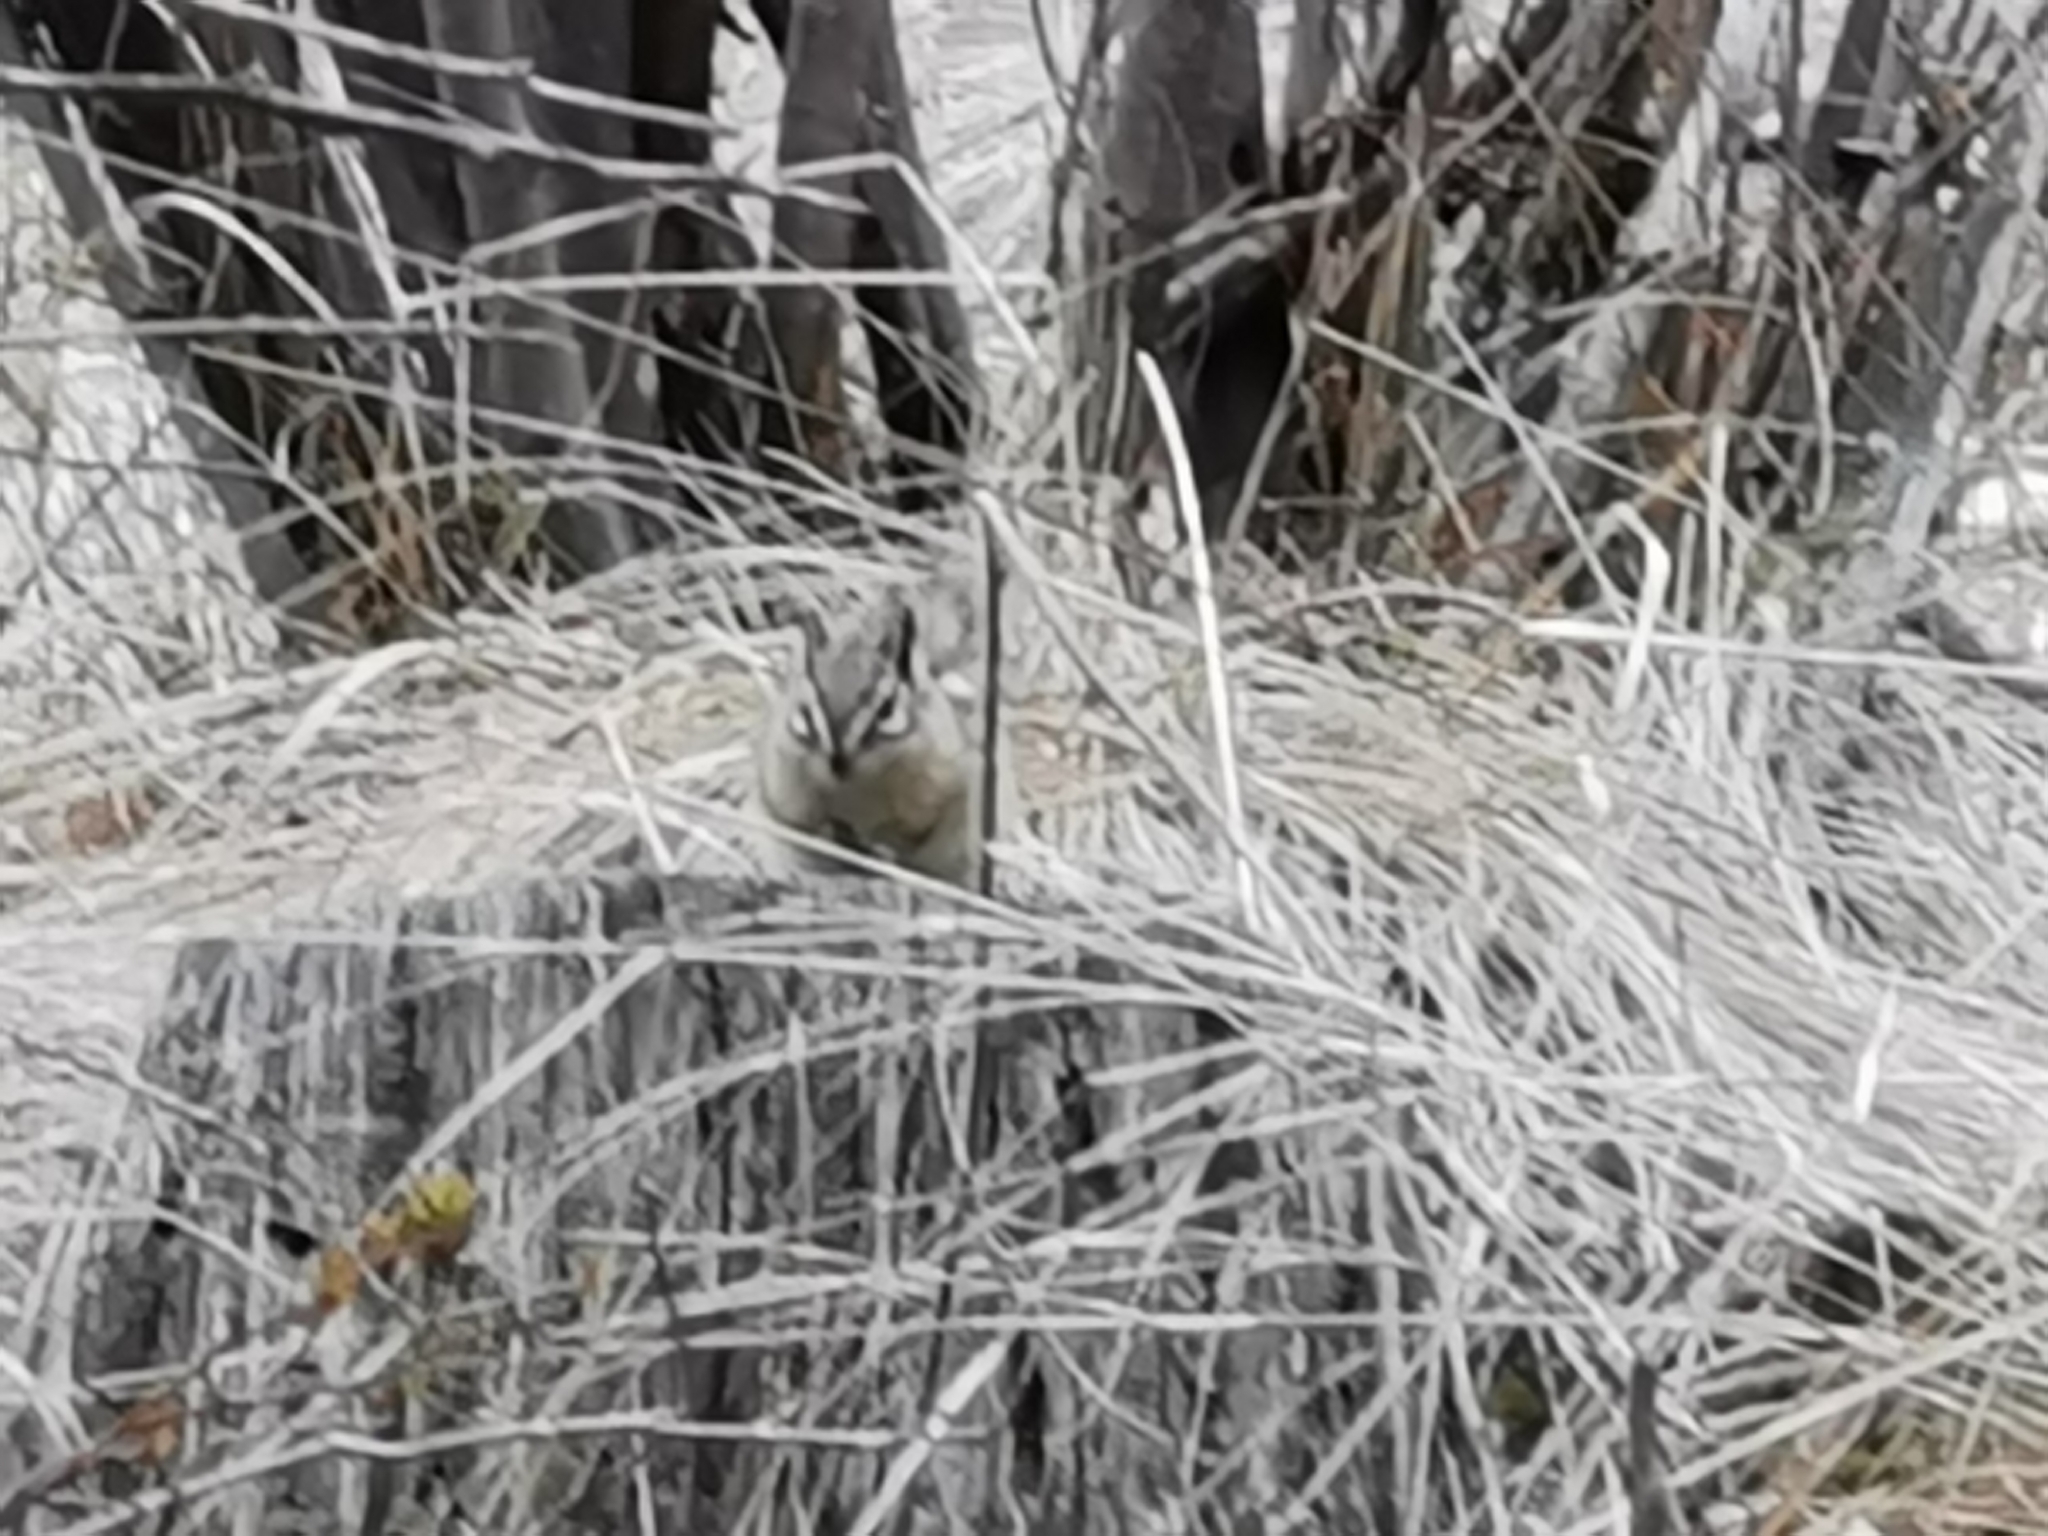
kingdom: Animalia
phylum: Chordata
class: Mammalia
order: Rodentia
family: Sciuridae
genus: Tamias
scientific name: Tamias amoenus
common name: Yellow-pine chipmunk
